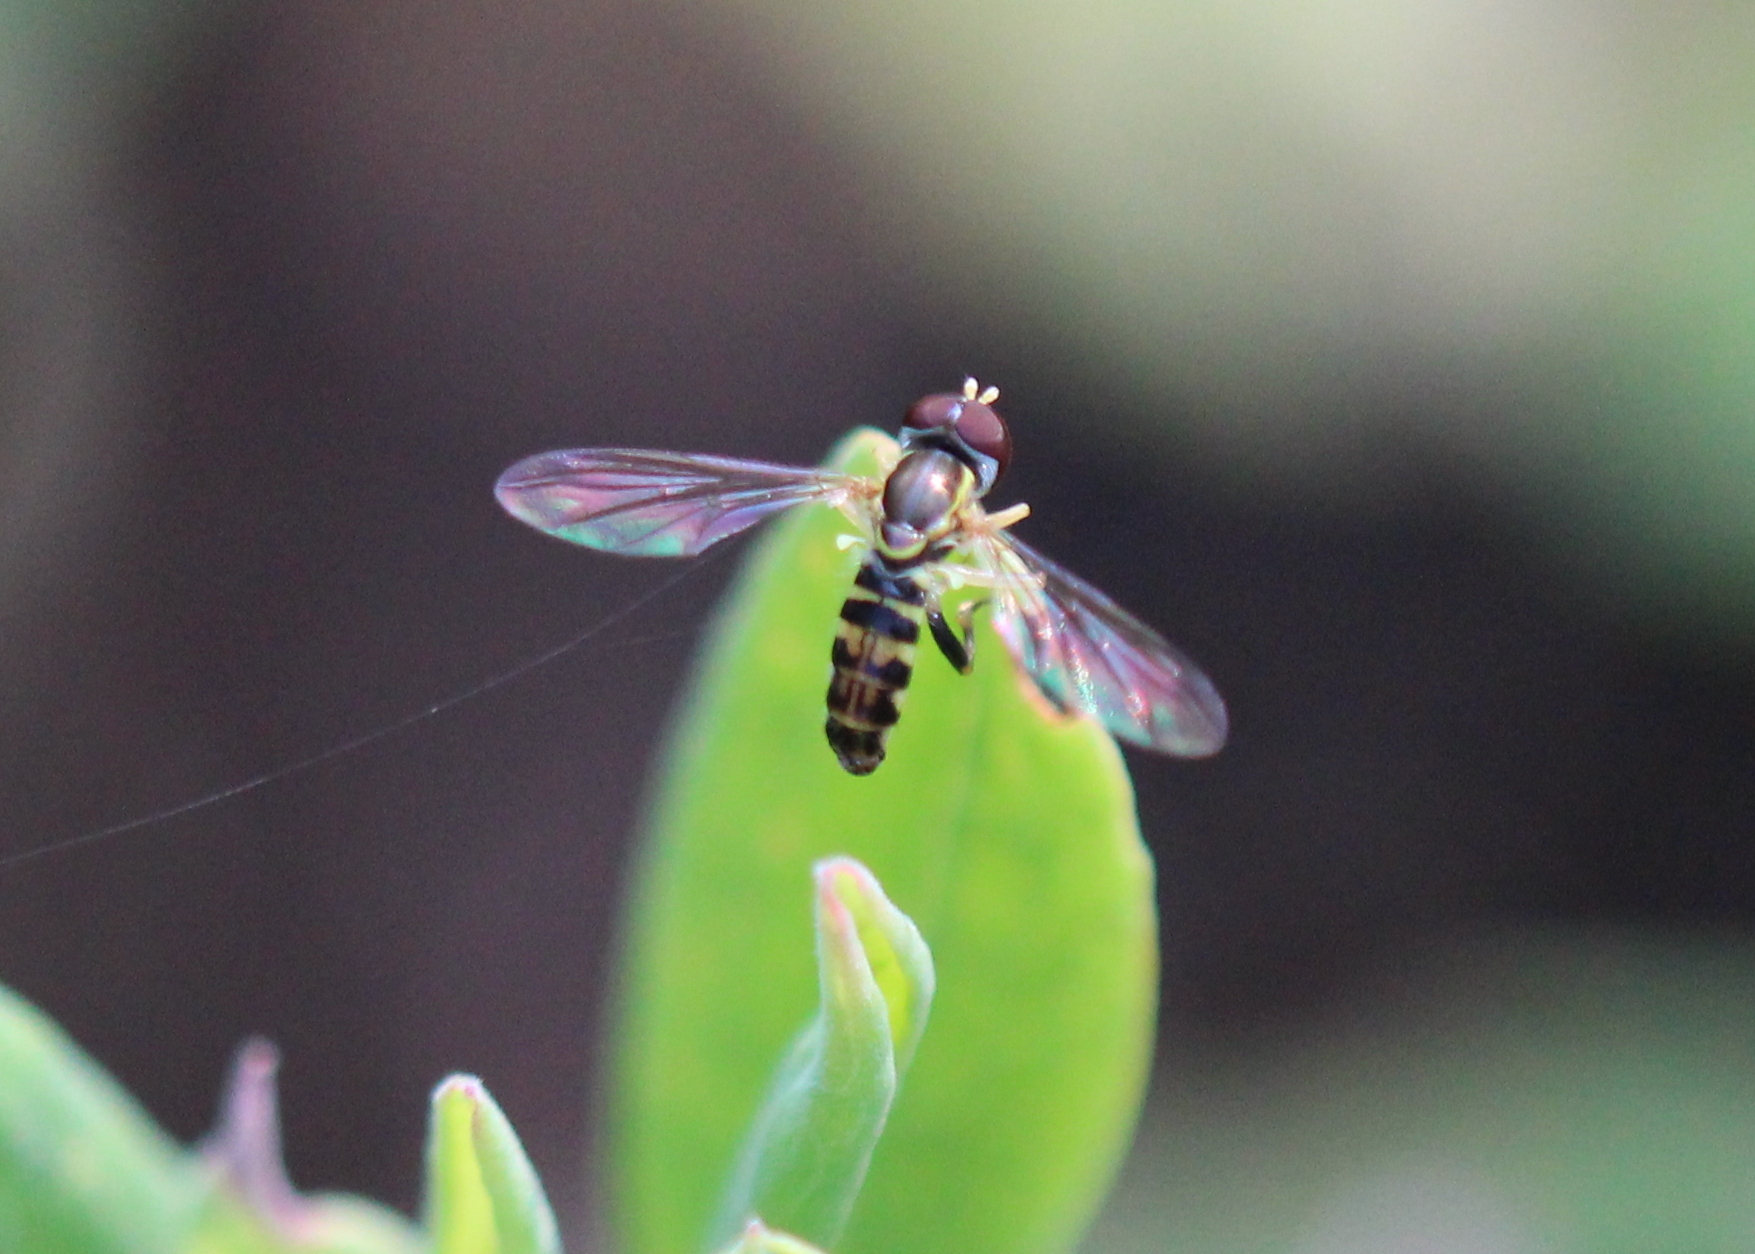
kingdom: Animalia
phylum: Arthropoda
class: Insecta
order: Diptera
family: Syrphidae
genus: Toxomerus
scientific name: Toxomerus geminatus
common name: Eastern calligrapher
